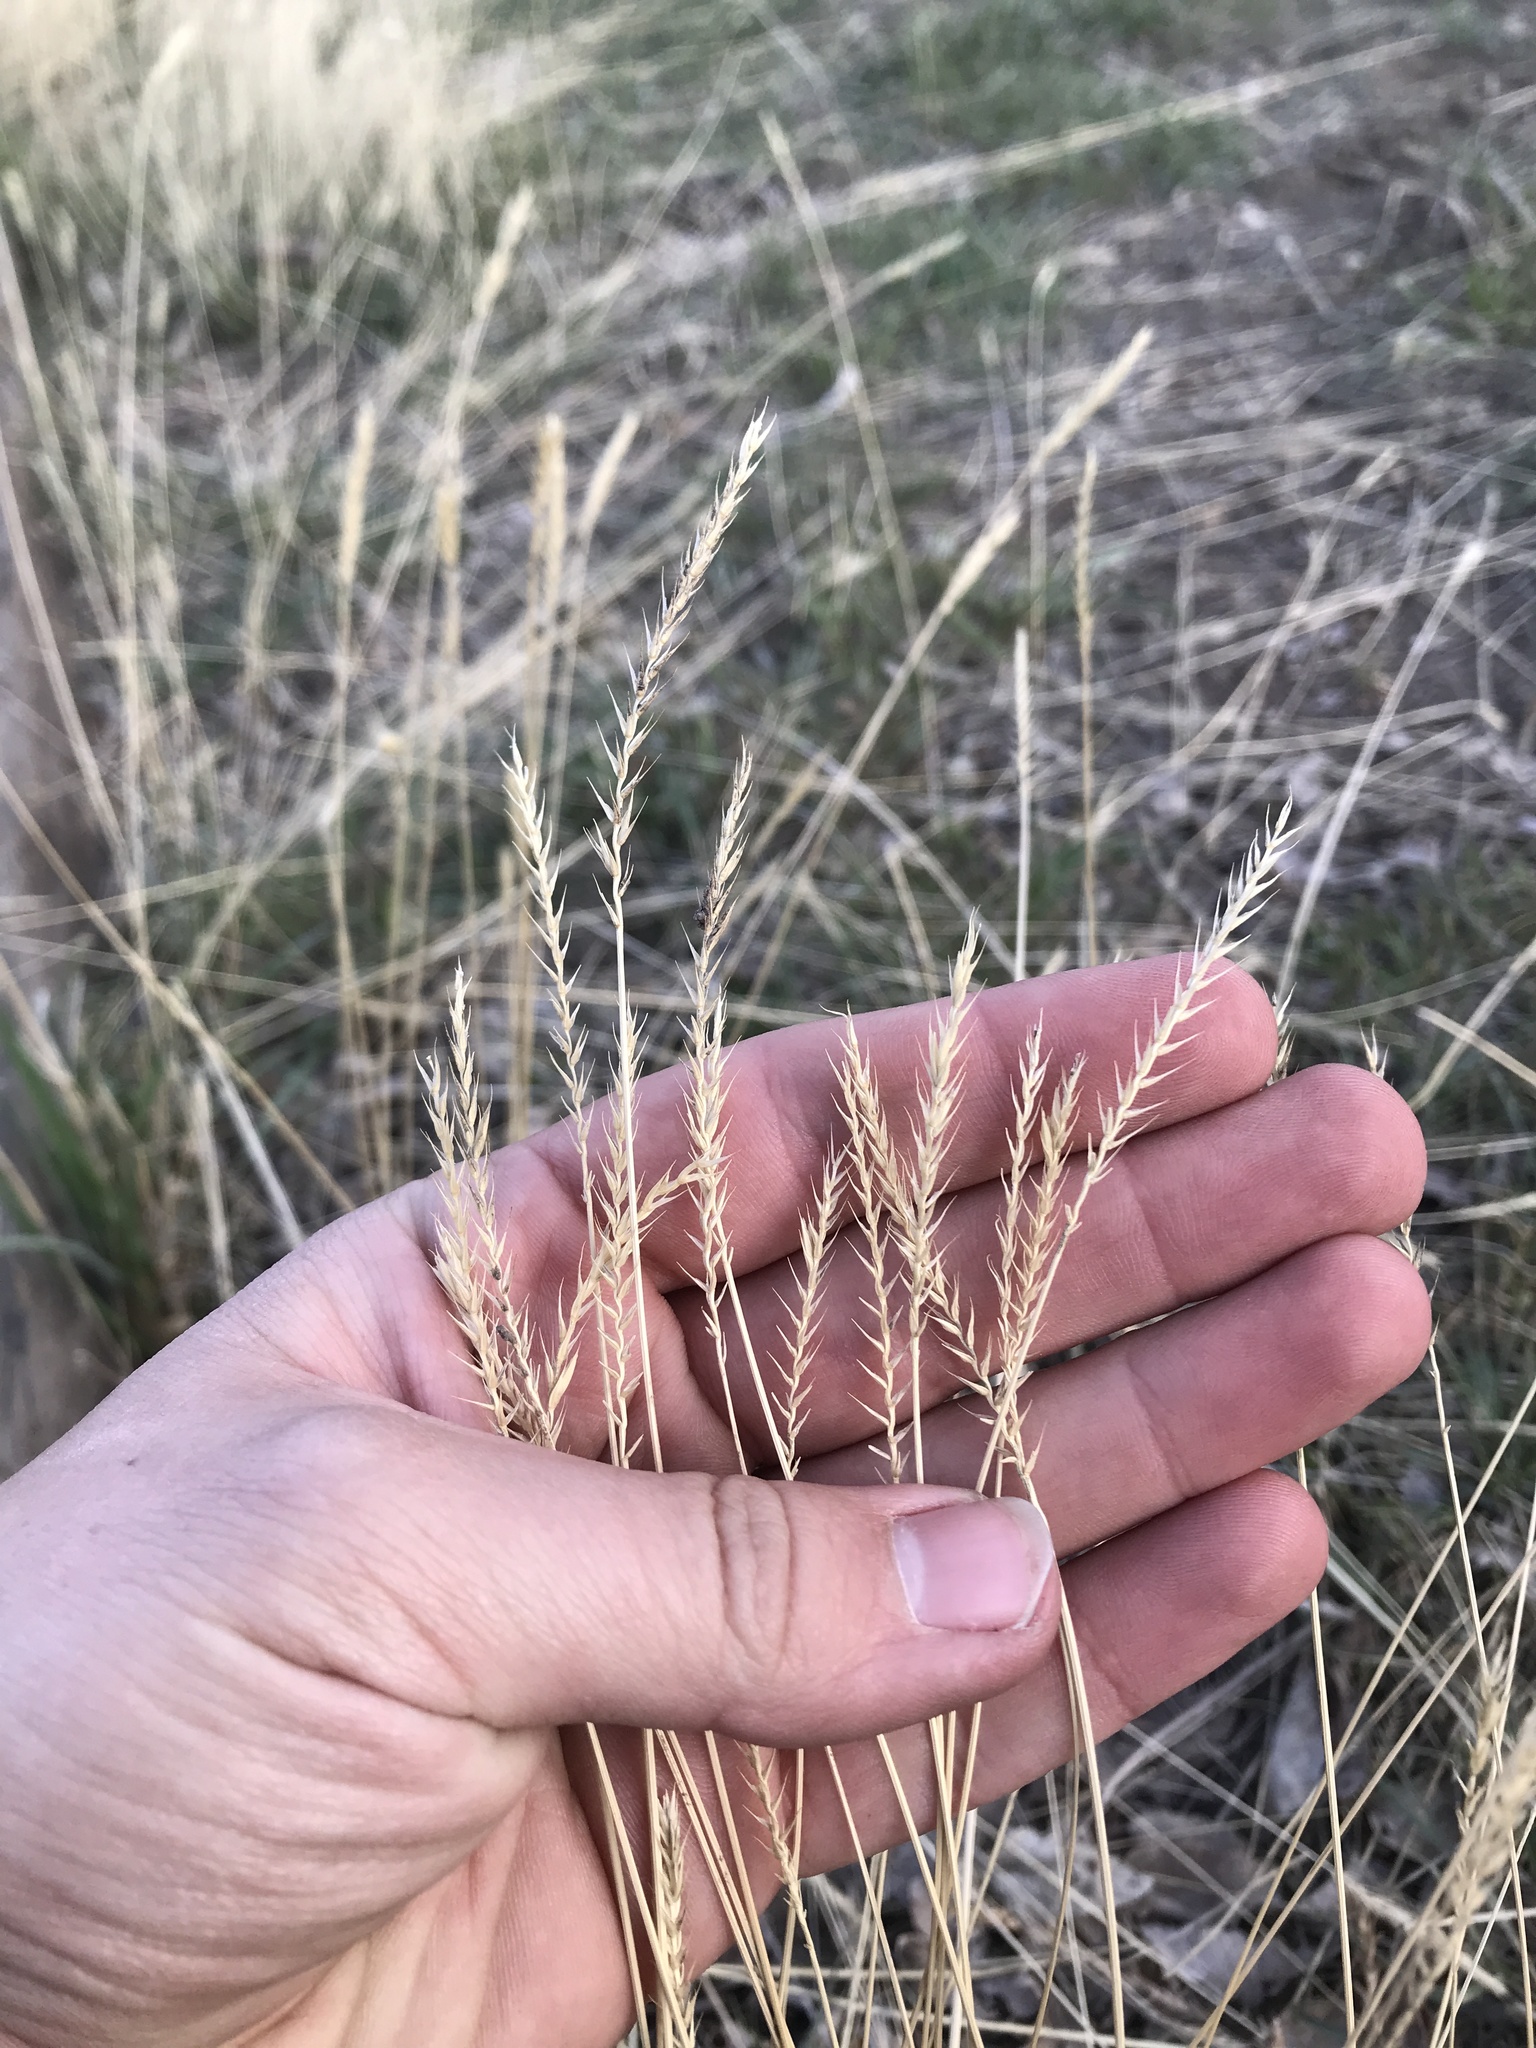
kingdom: Plantae
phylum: Tracheophyta
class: Liliopsida
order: Poales
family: Poaceae
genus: Agropyron
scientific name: Agropyron cristatum
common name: Crested wheatgrass
